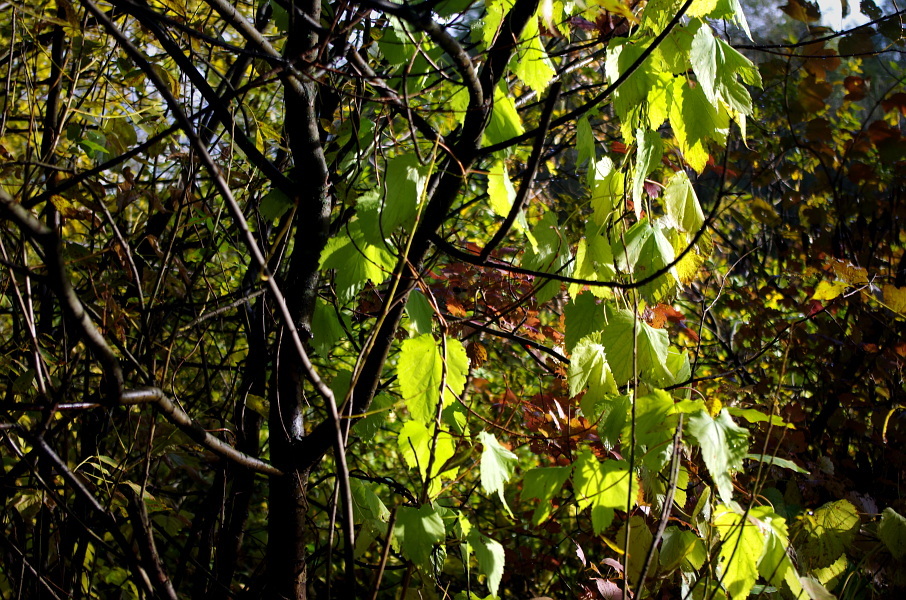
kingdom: Plantae
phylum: Tracheophyta
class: Magnoliopsida
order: Rosales
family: Cannabaceae
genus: Humulus
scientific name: Humulus lupulus
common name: Hop
